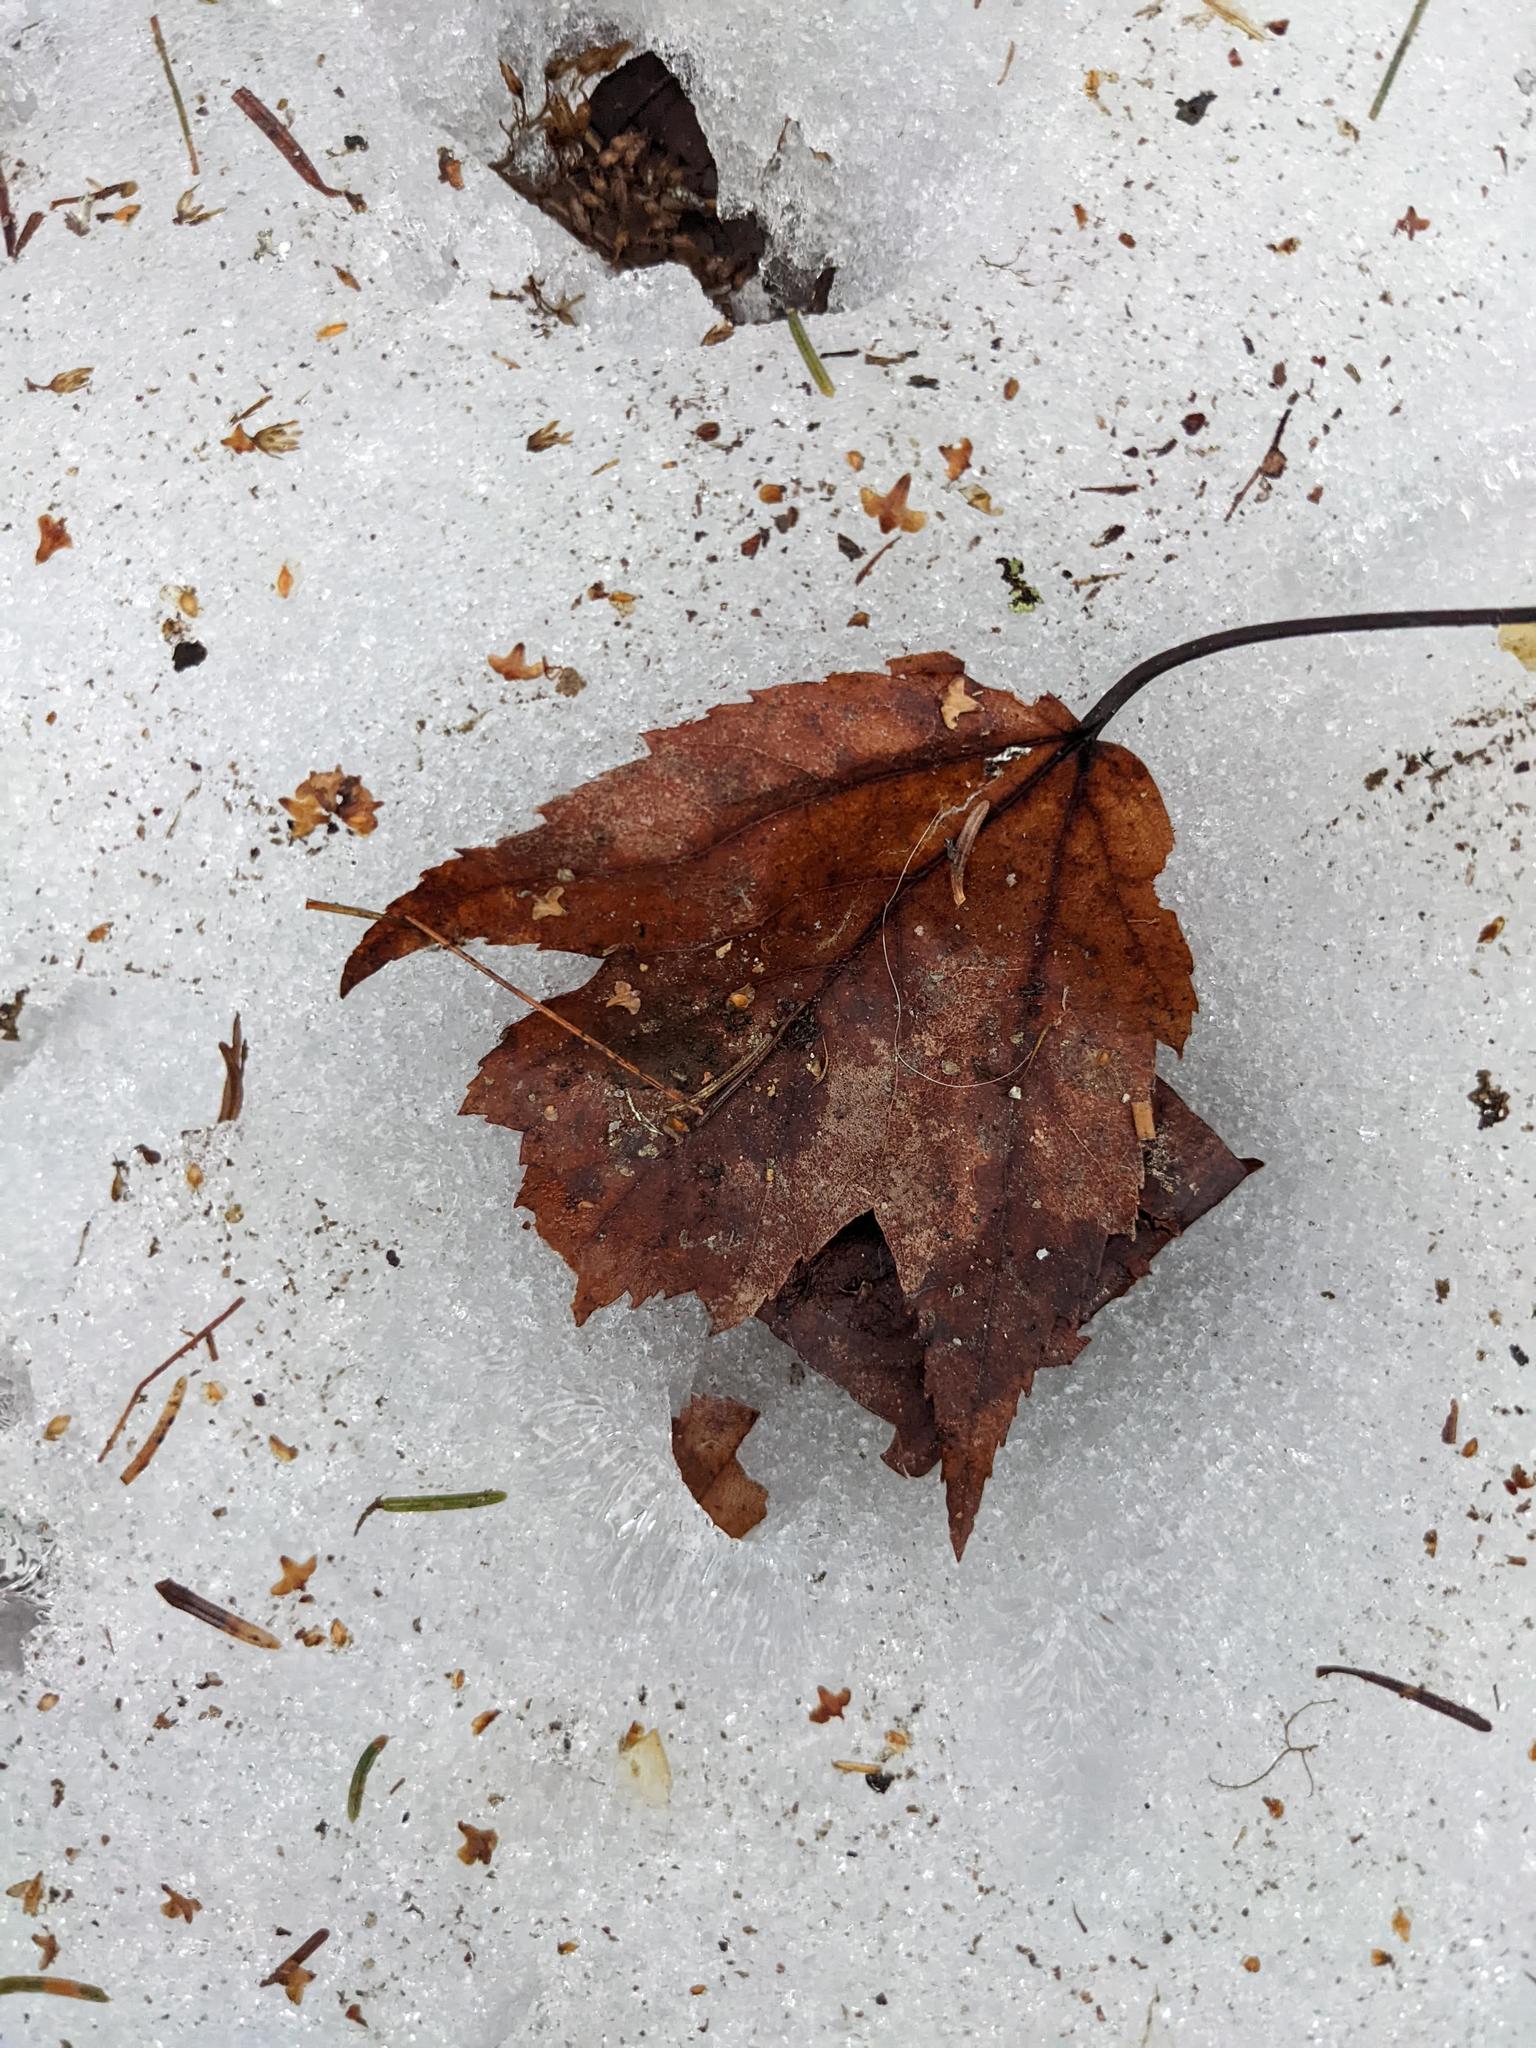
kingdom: Plantae
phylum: Tracheophyta
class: Magnoliopsida
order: Sapindales
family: Sapindaceae
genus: Acer
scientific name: Acer rubrum
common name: Red maple
